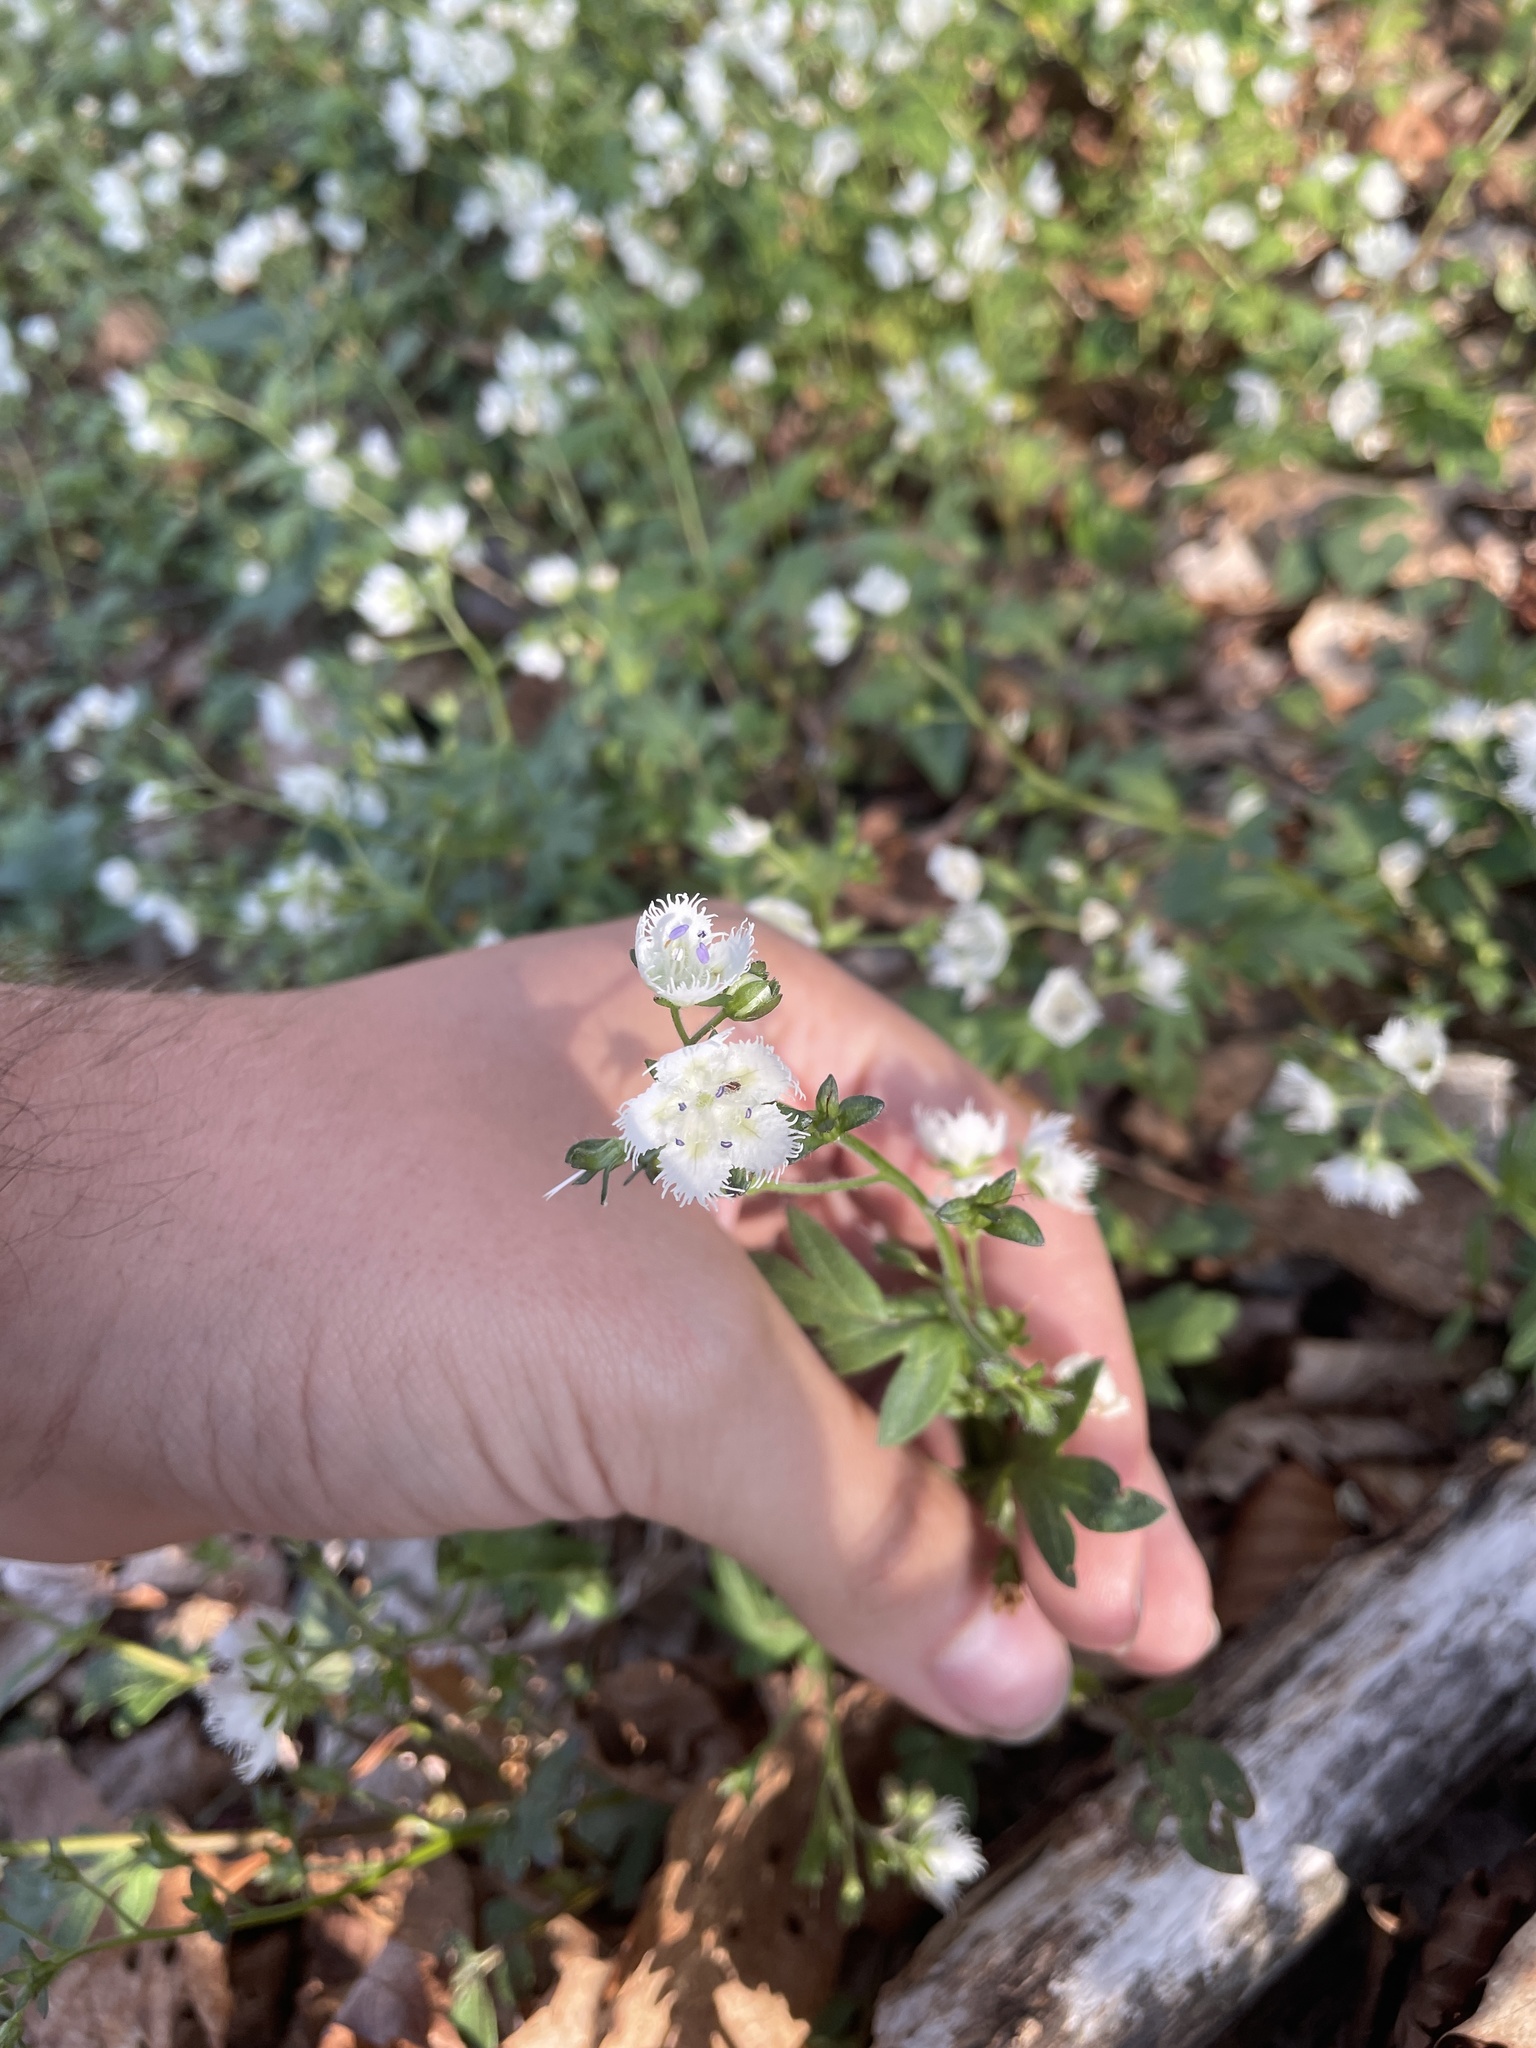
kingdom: Plantae
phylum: Tracheophyta
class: Magnoliopsida
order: Boraginales
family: Hydrophyllaceae
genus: Phacelia
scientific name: Phacelia fimbriata
